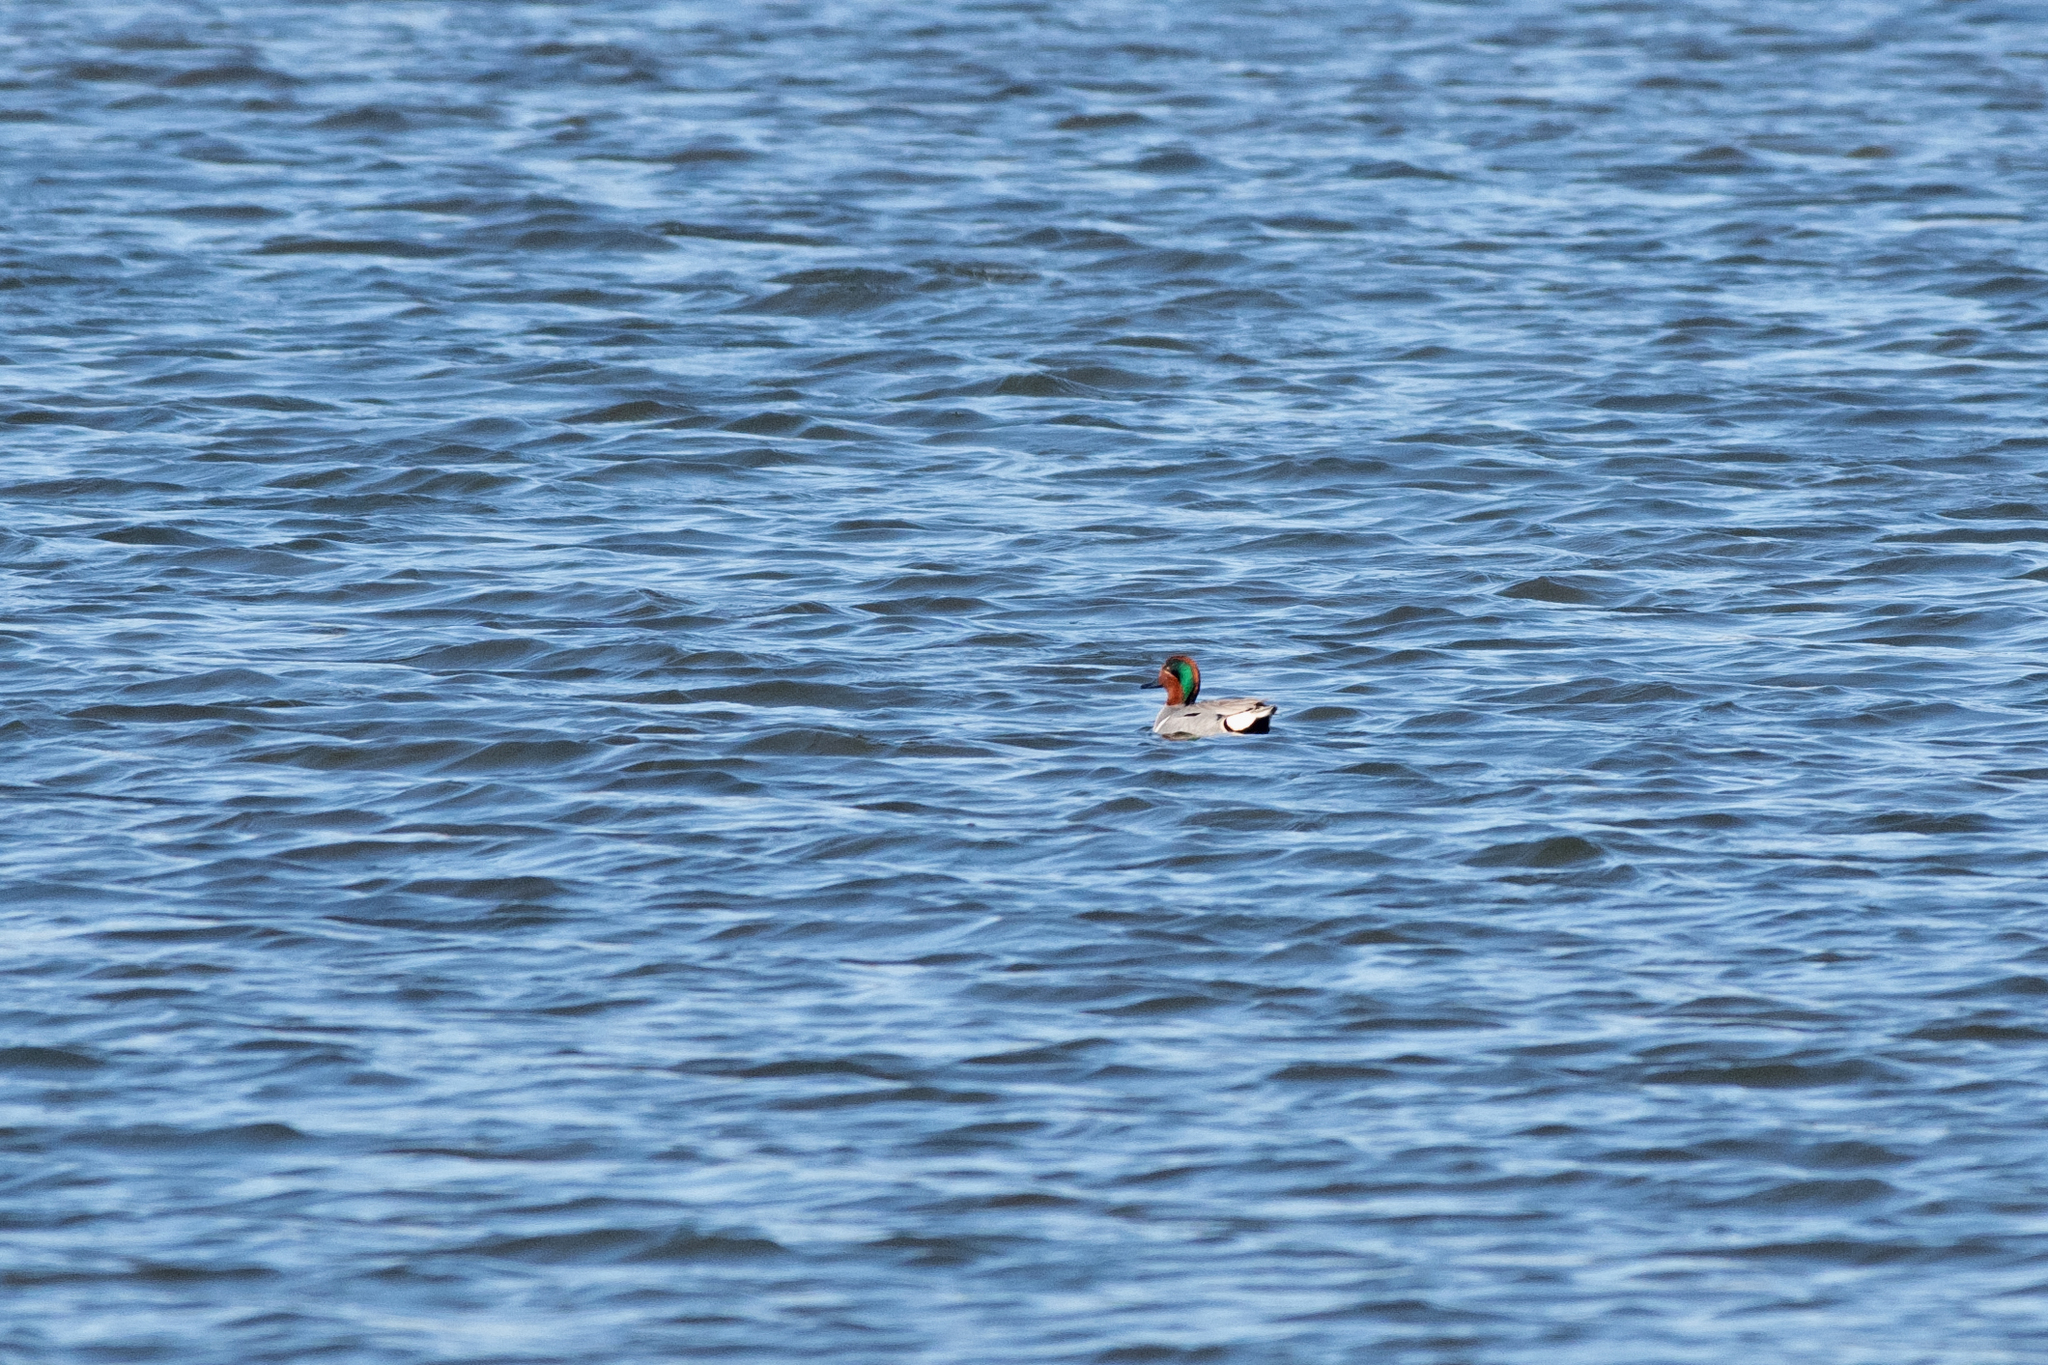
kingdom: Animalia
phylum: Chordata
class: Aves
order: Anseriformes
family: Anatidae
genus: Anas
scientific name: Anas crecca
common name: Eurasian teal
